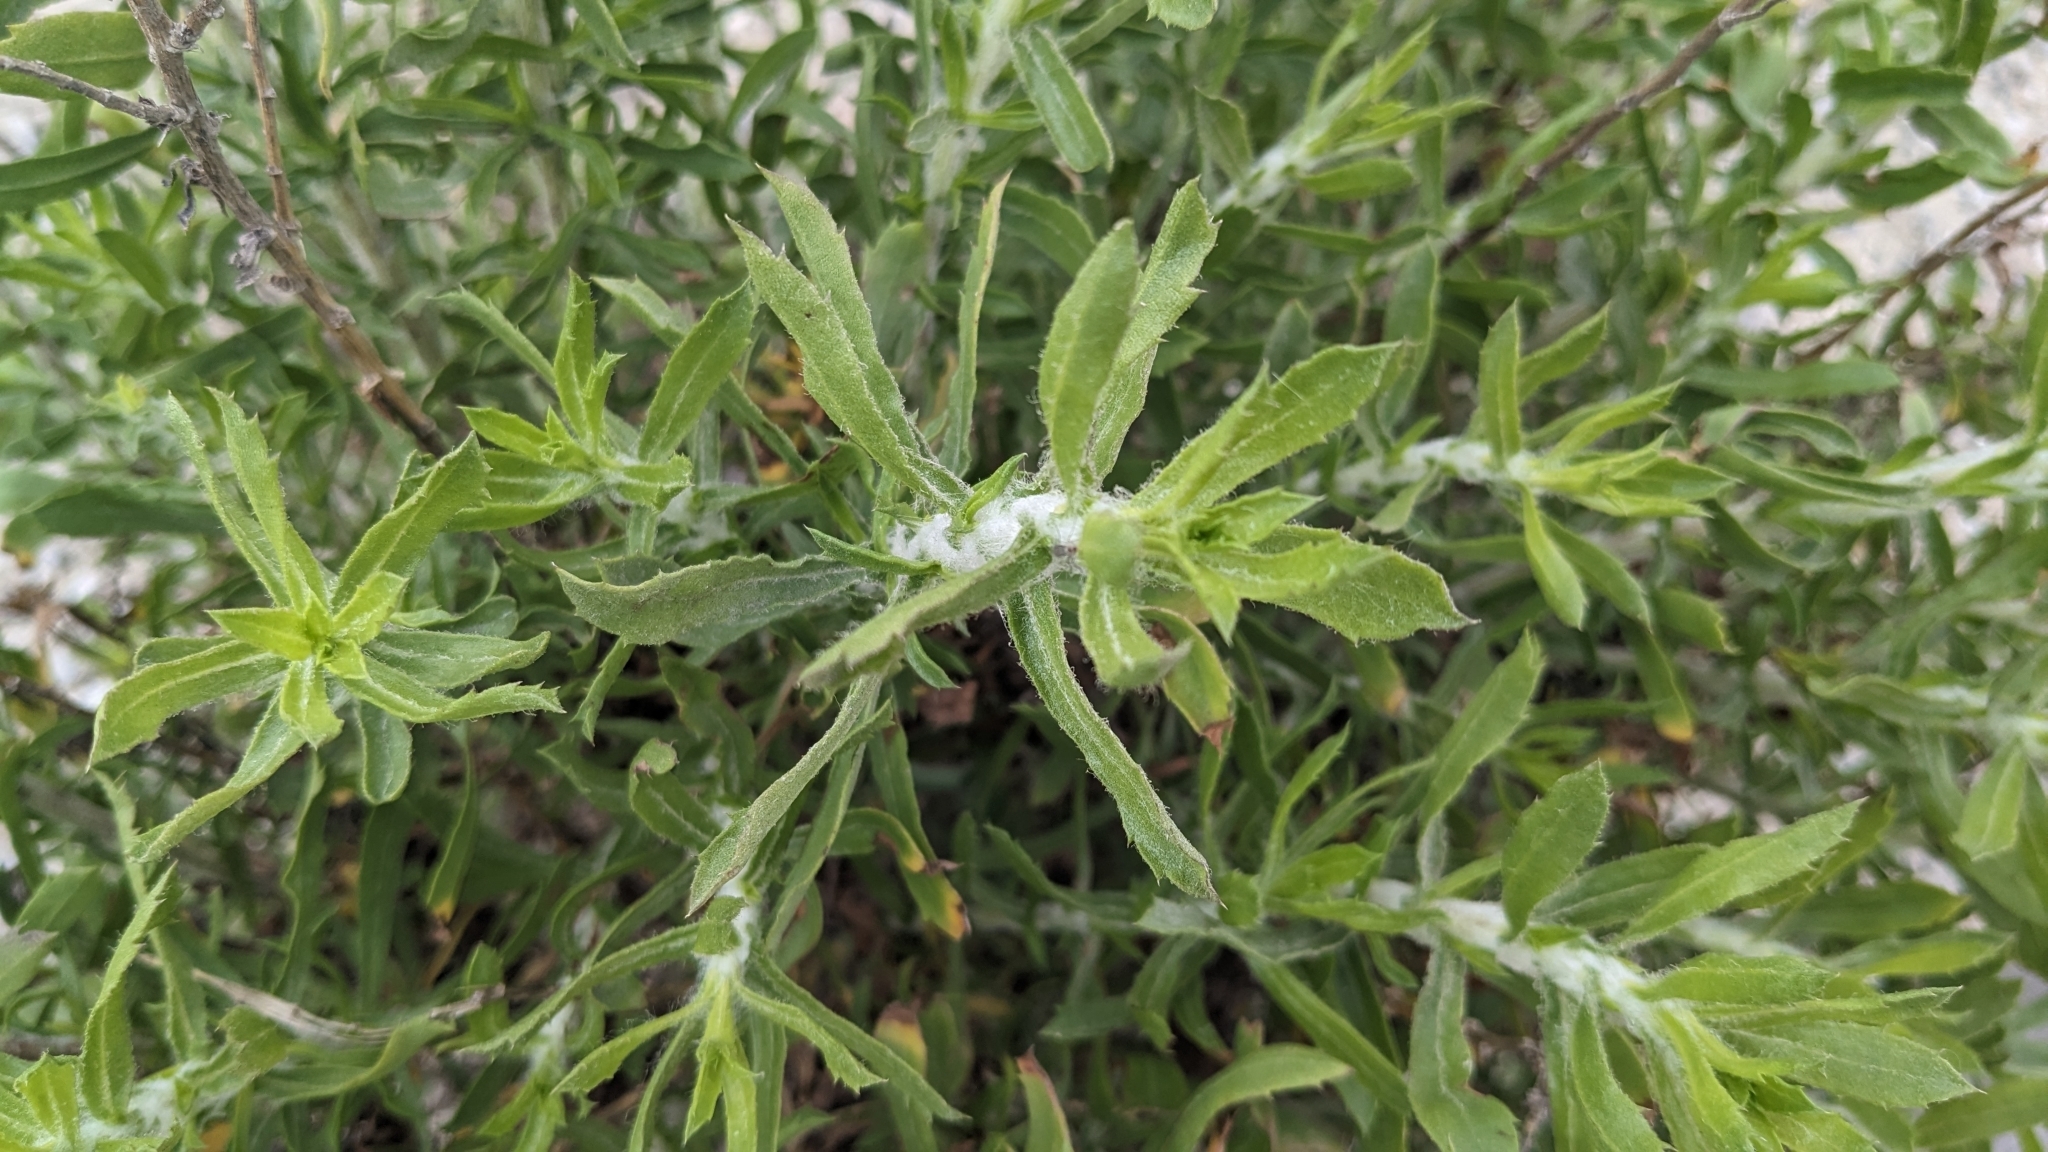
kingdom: Plantae
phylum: Tracheophyta
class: Magnoliopsida
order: Asterales
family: Asteraceae
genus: Isocoma
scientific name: Isocoma menziesii
